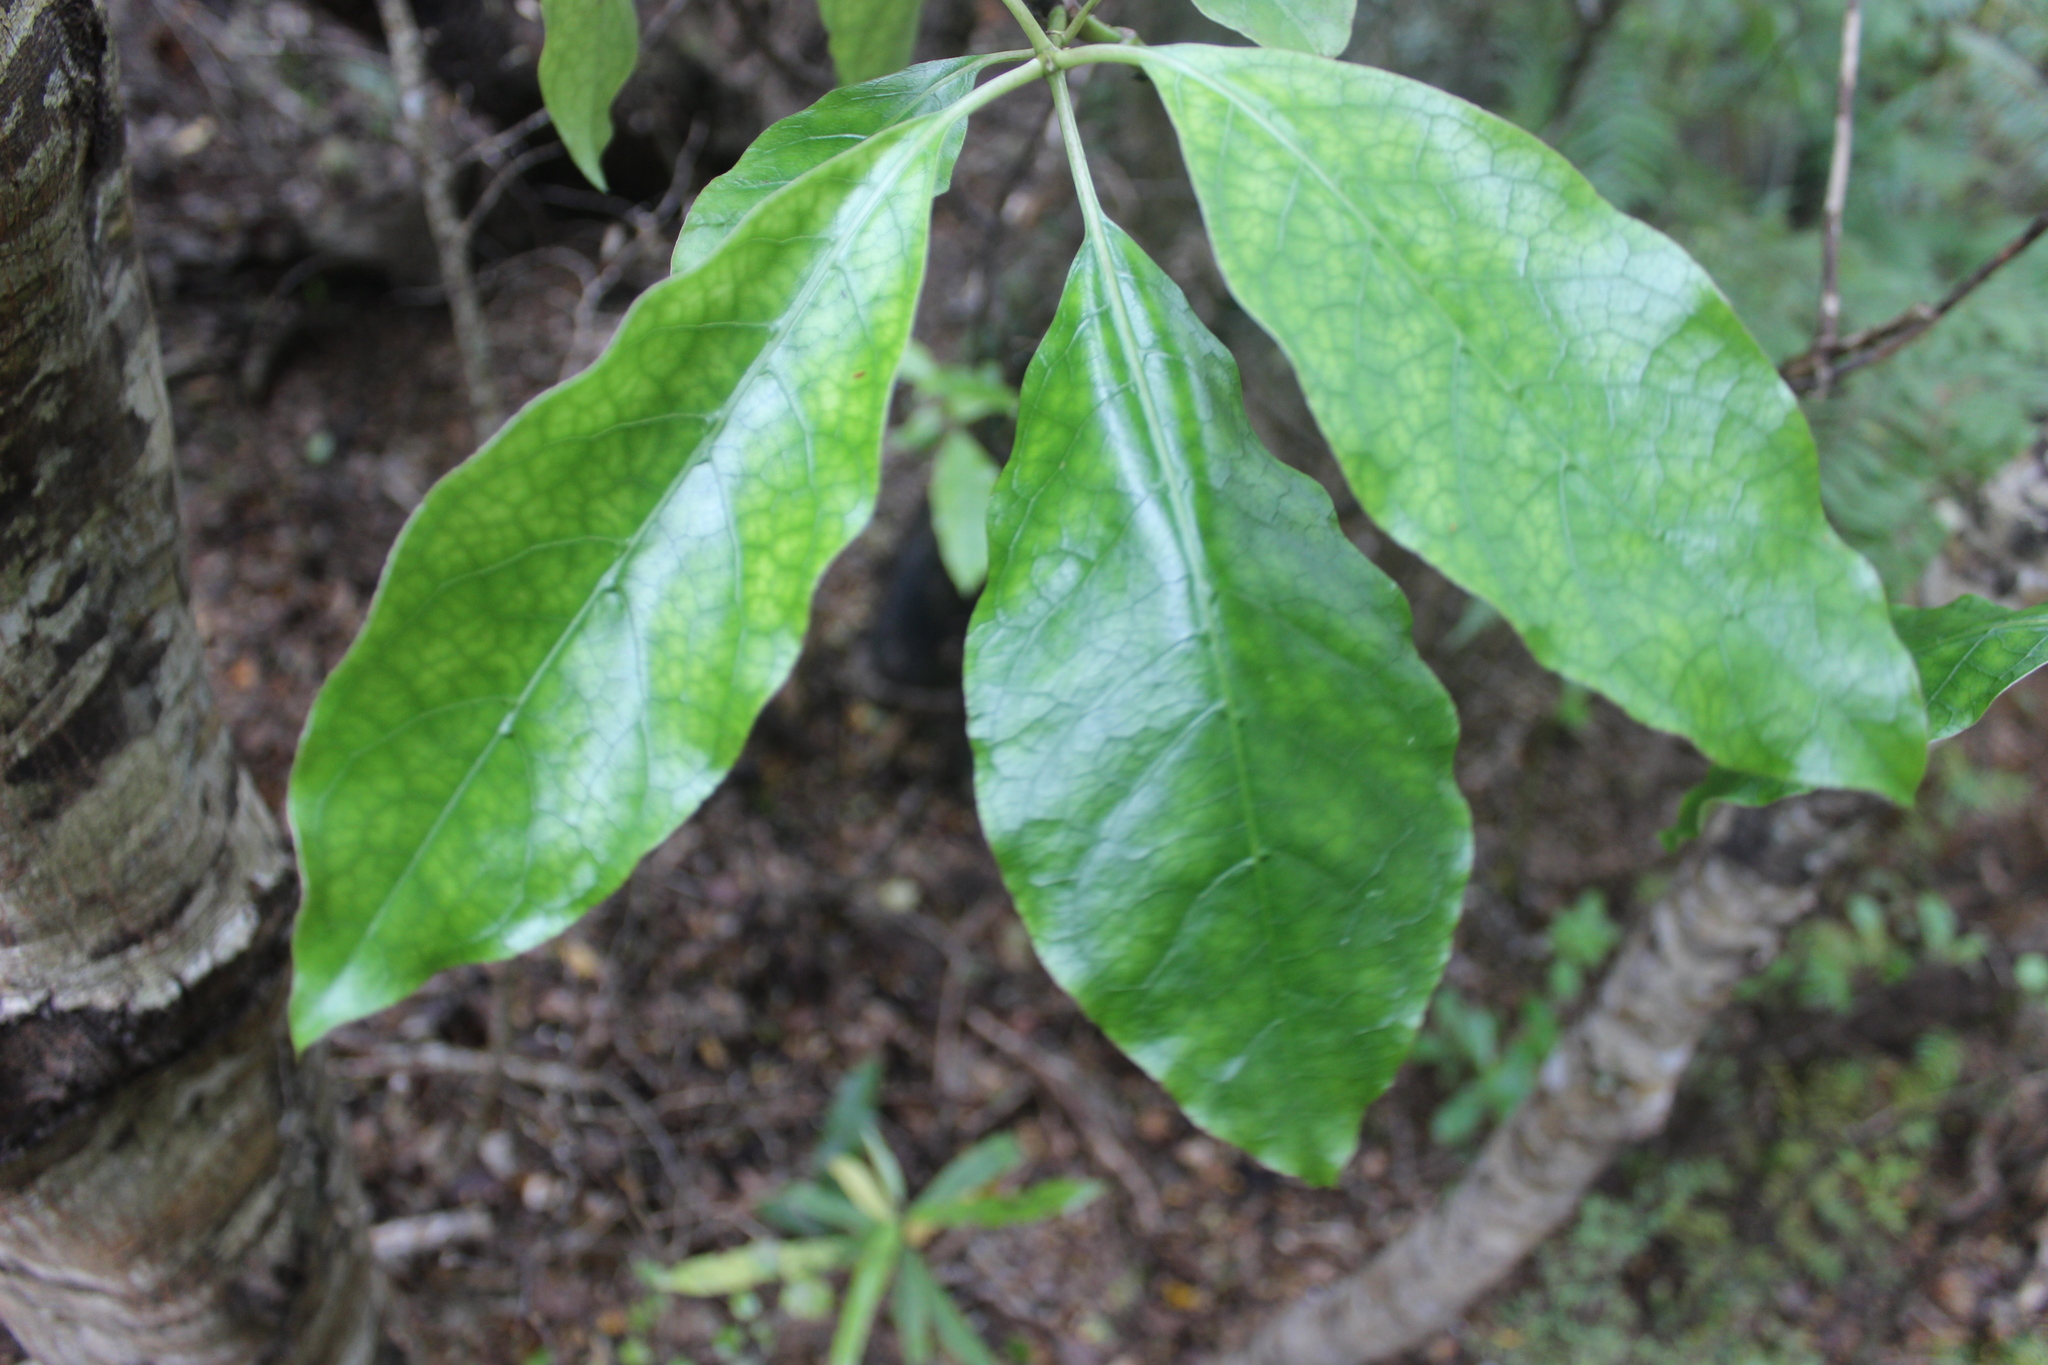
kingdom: Plantae
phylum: Tracheophyta
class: Magnoliopsida
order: Gentianales
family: Rubiaceae
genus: Coprosma
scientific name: Coprosma autumnalis
